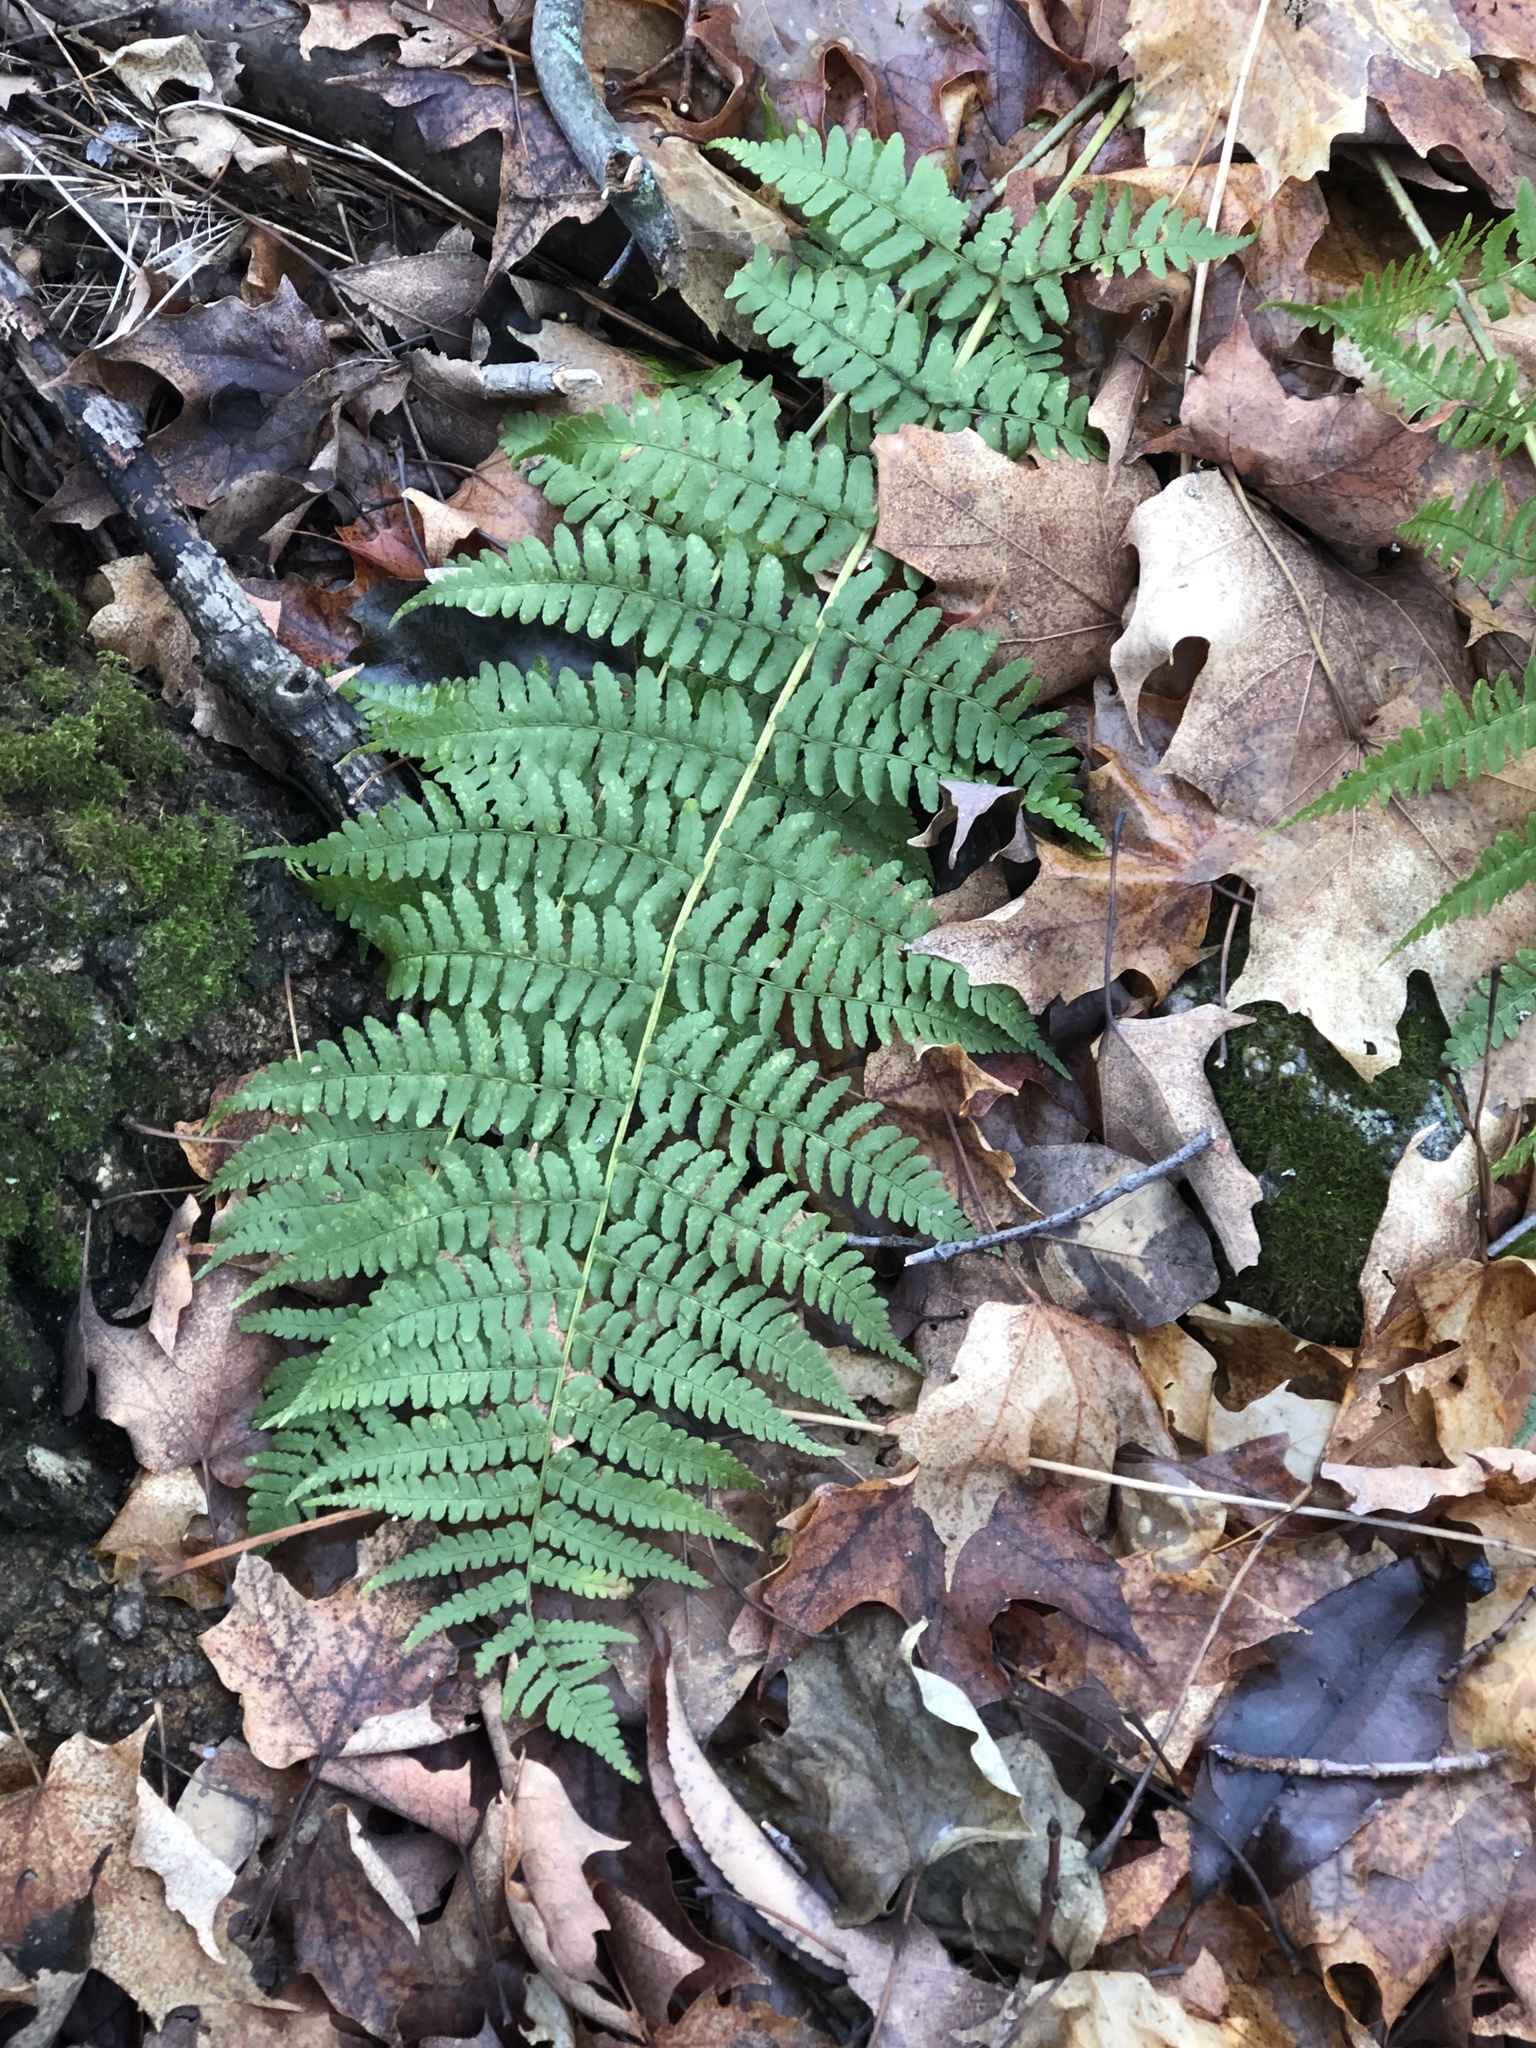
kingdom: Plantae
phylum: Tracheophyta
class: Polypodiopsida
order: Polypodiales
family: Dryopteridaceae
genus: Dryopteris
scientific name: Dryopteris marginalis
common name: Marginal wood fern
